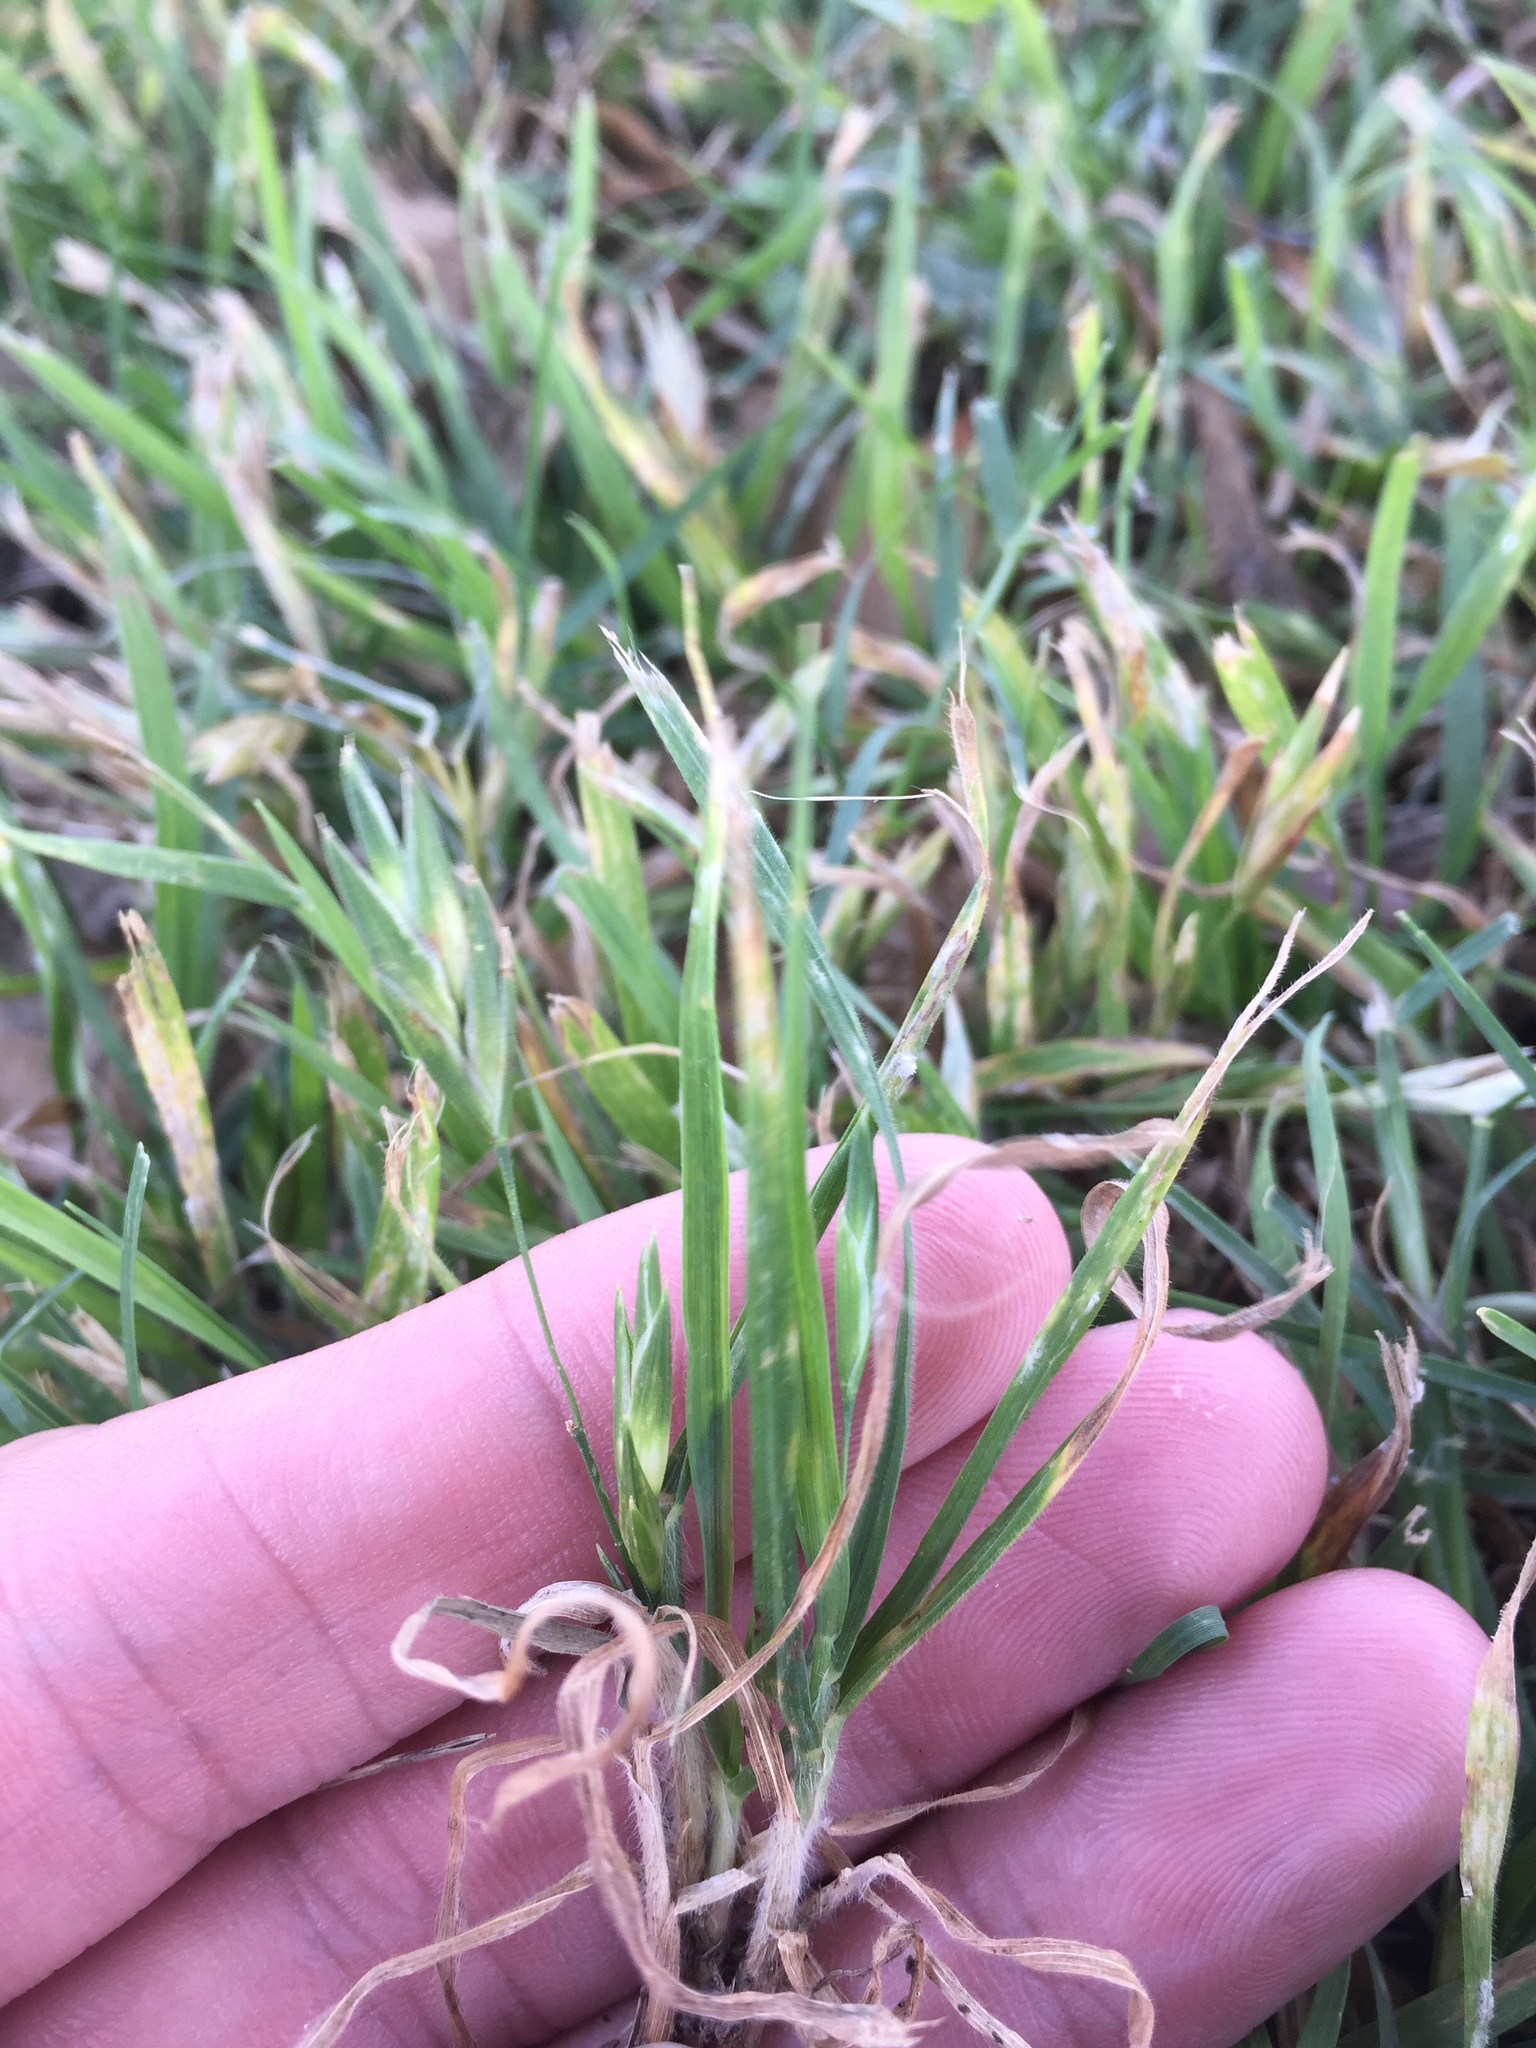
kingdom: Plantae
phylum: Tracheophyta
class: Liliopsida
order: Poales
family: Poaceae
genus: Bromus
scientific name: Bromus catharticus
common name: Rescuegrass
